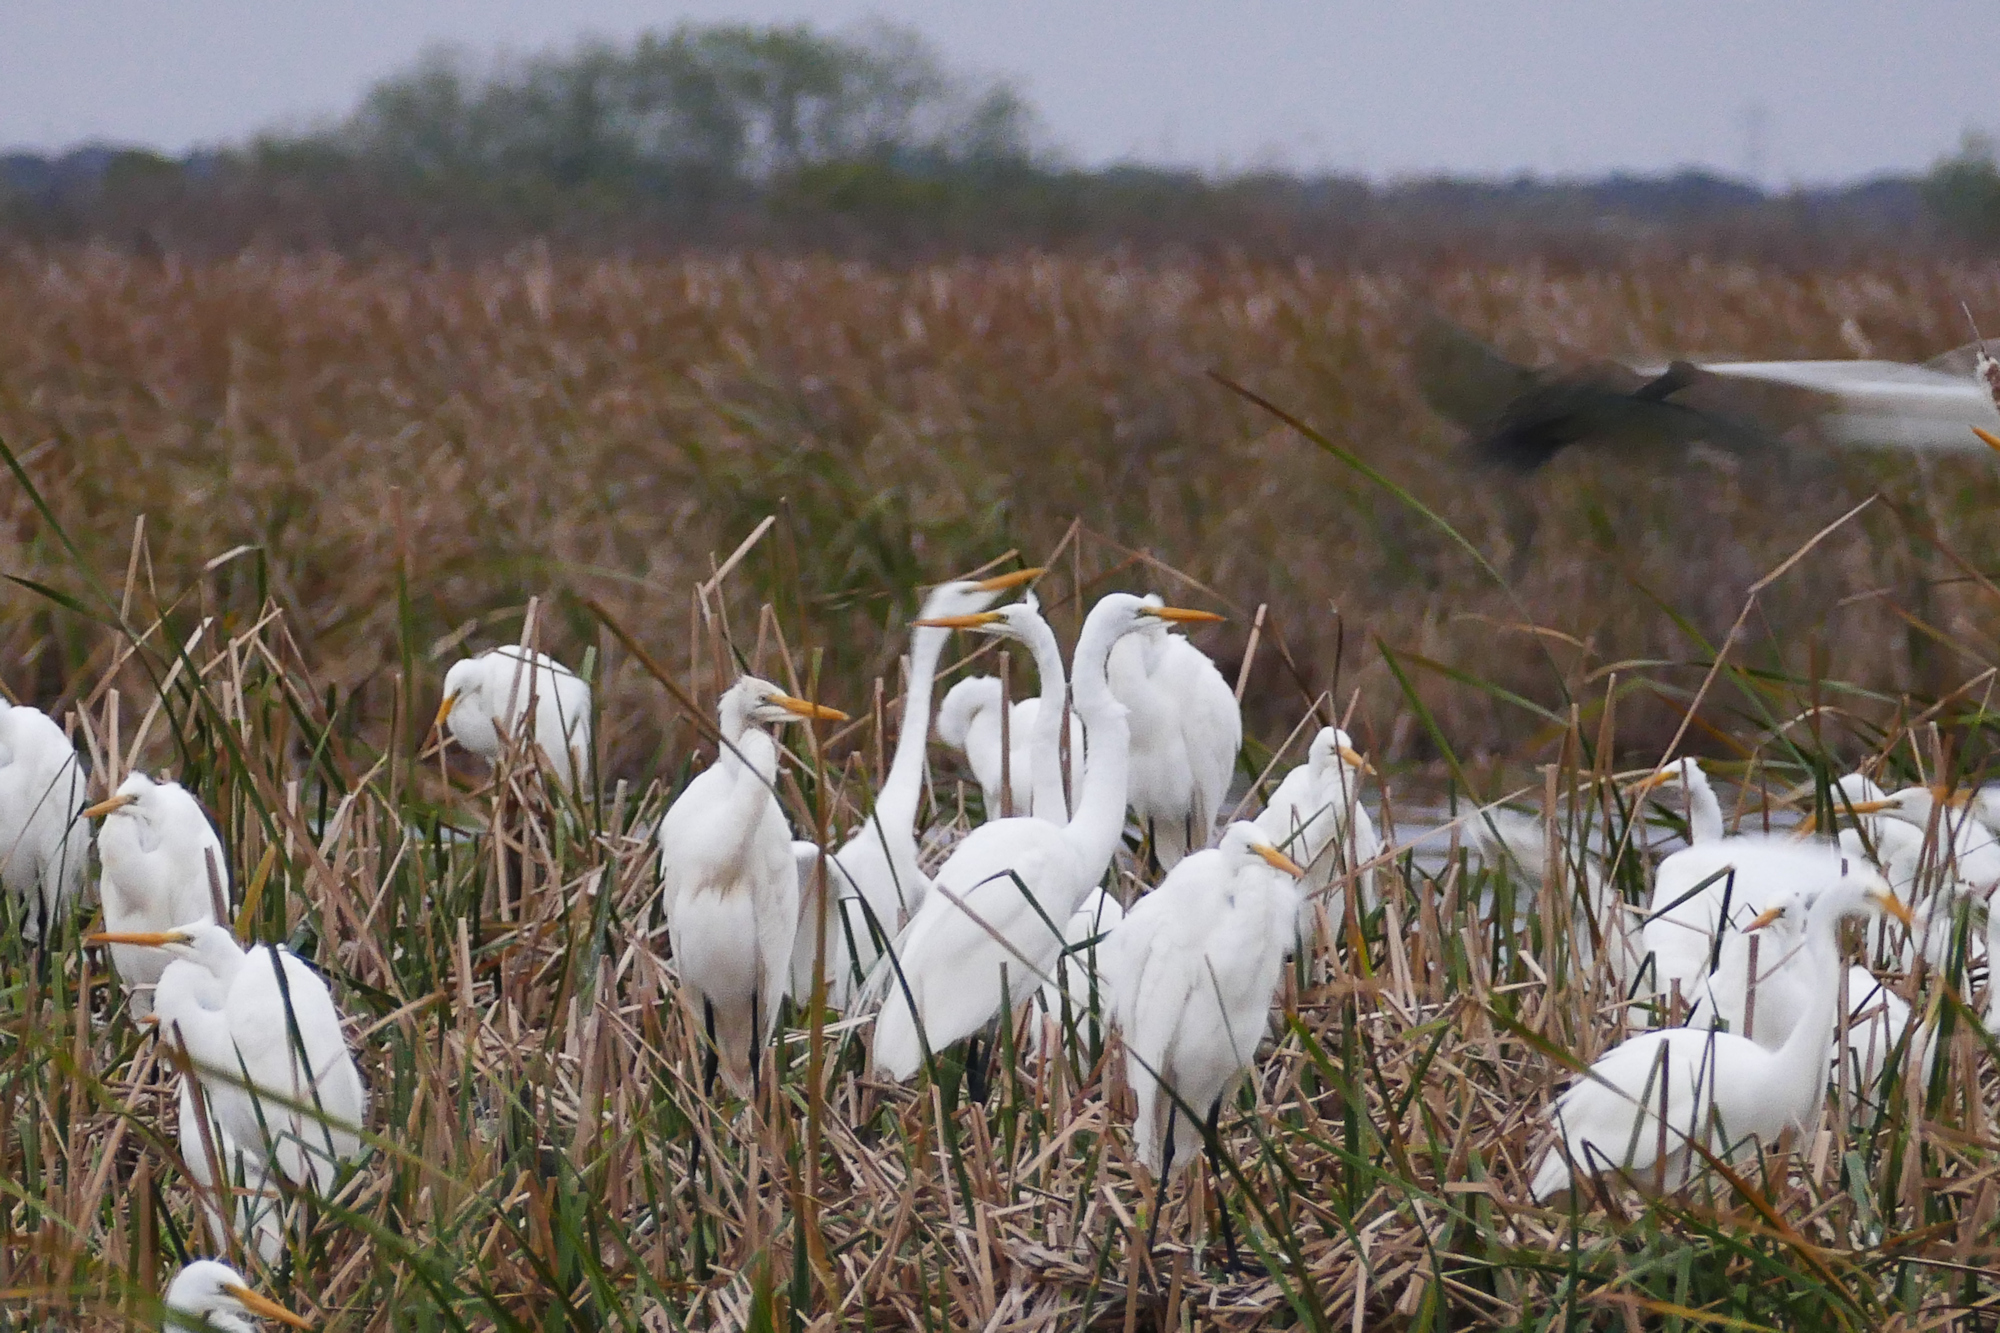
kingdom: Animalia
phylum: Chordata
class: Aves
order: Pelecaniformes
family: Ardeidae
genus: Ardea
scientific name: Ardea alba
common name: Great egret
